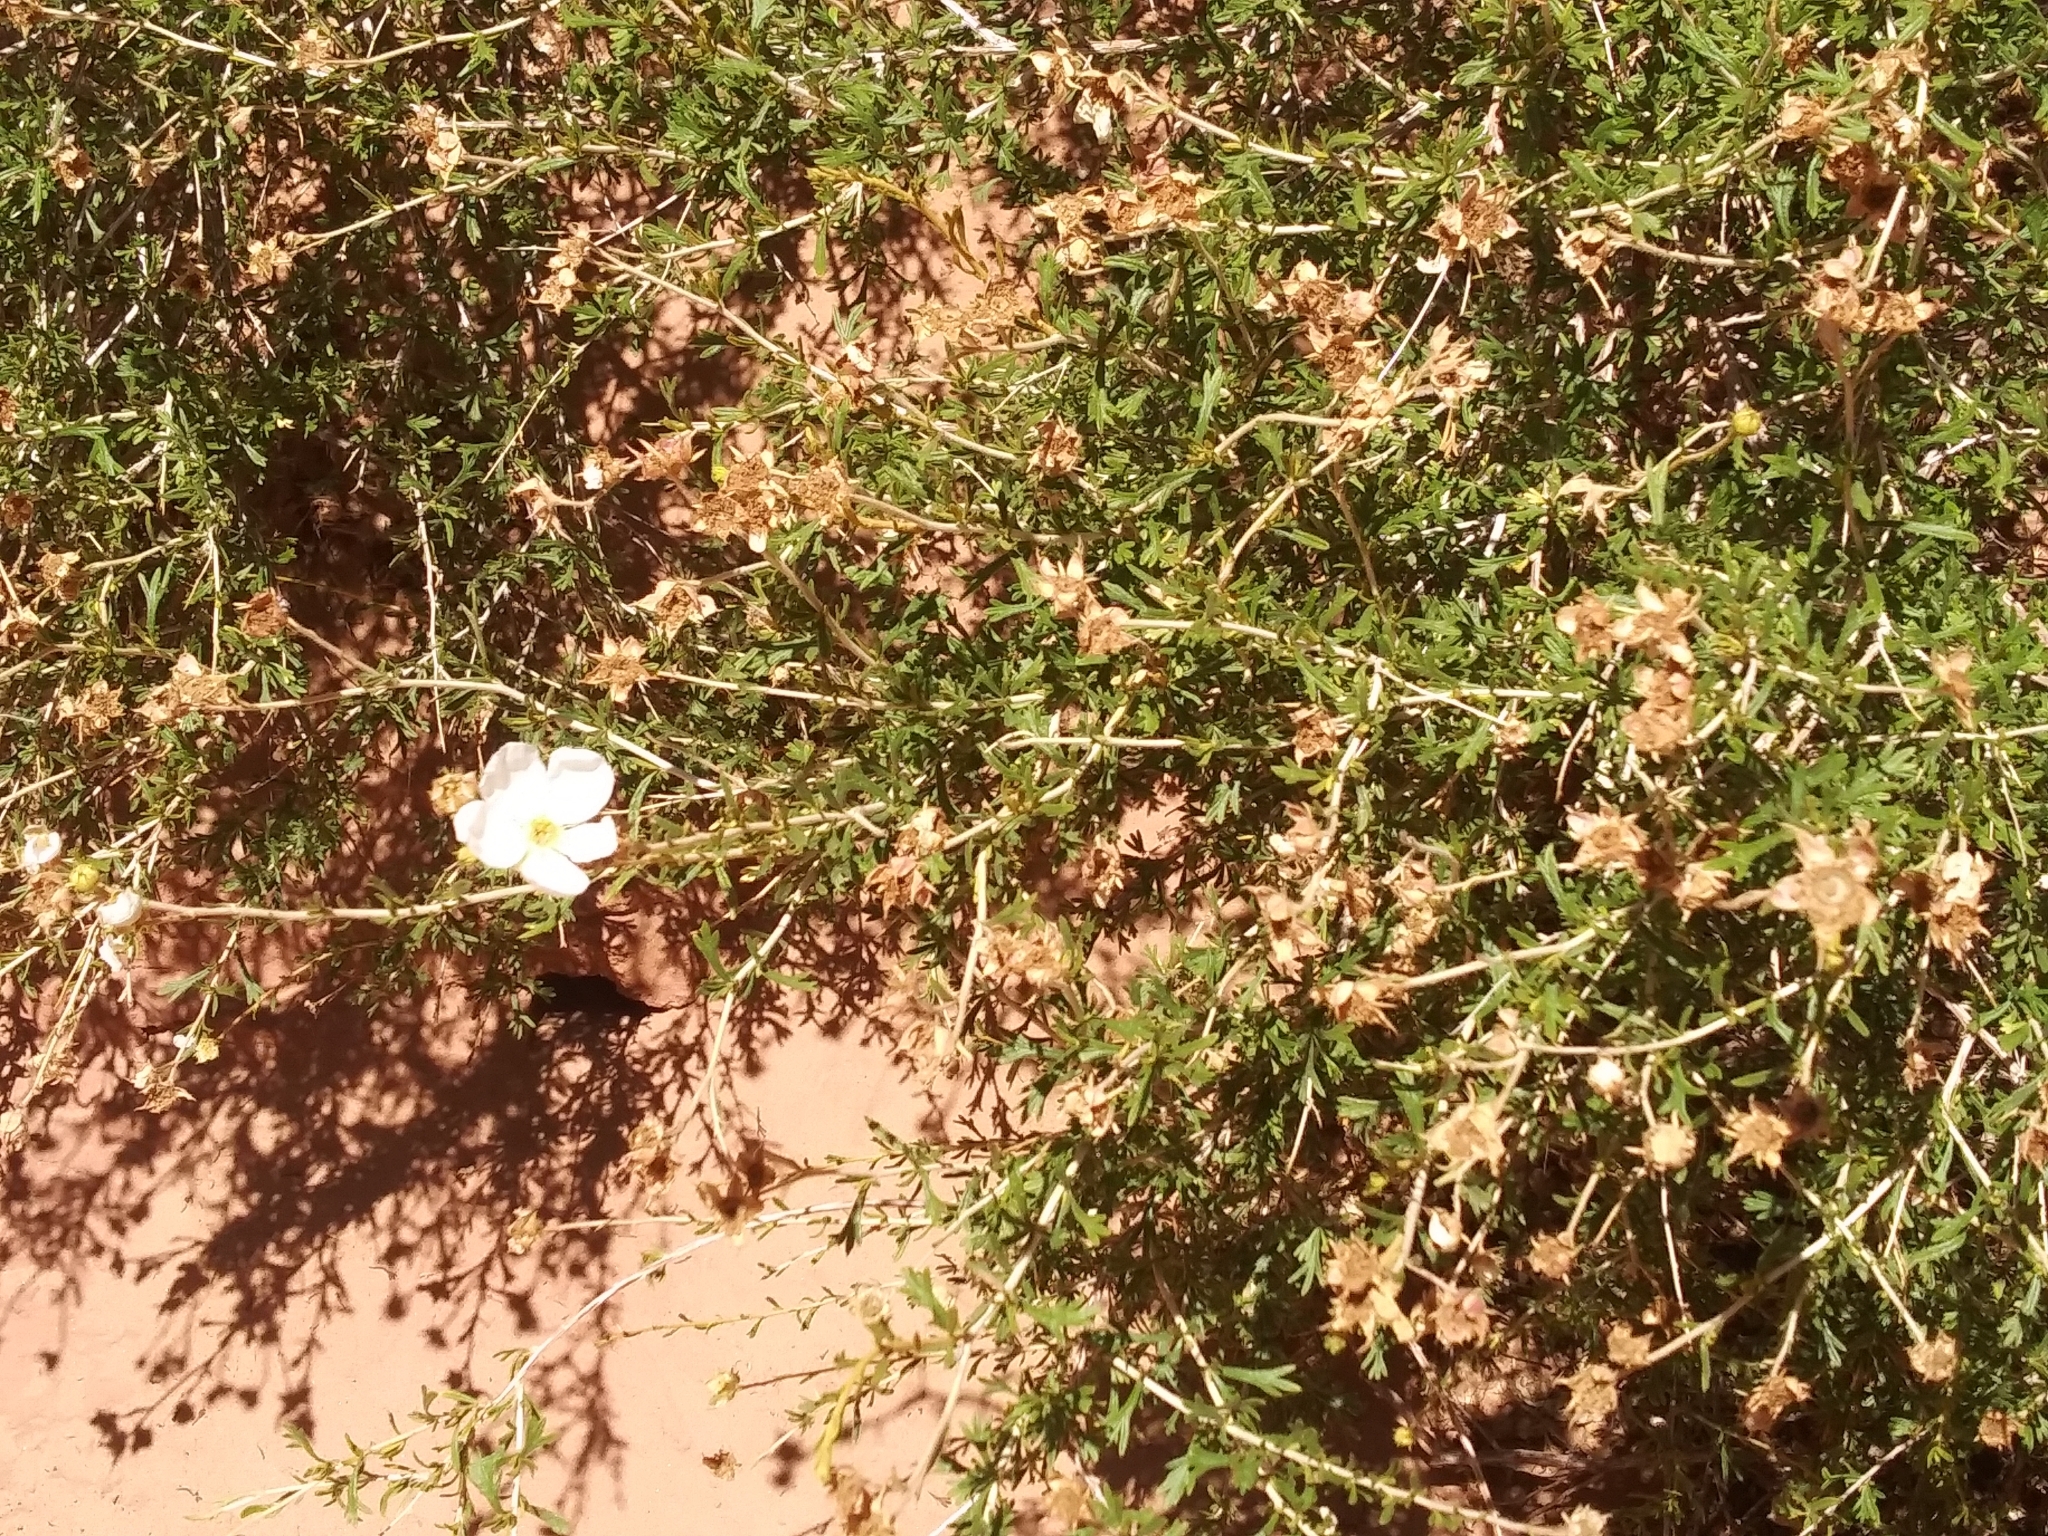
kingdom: Plantae
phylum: Tracheophyta
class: Magnoliopsida
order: Rosales
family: Rosaceae
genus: Fallugia
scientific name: Fallugia paradoxa
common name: Apache-plume
